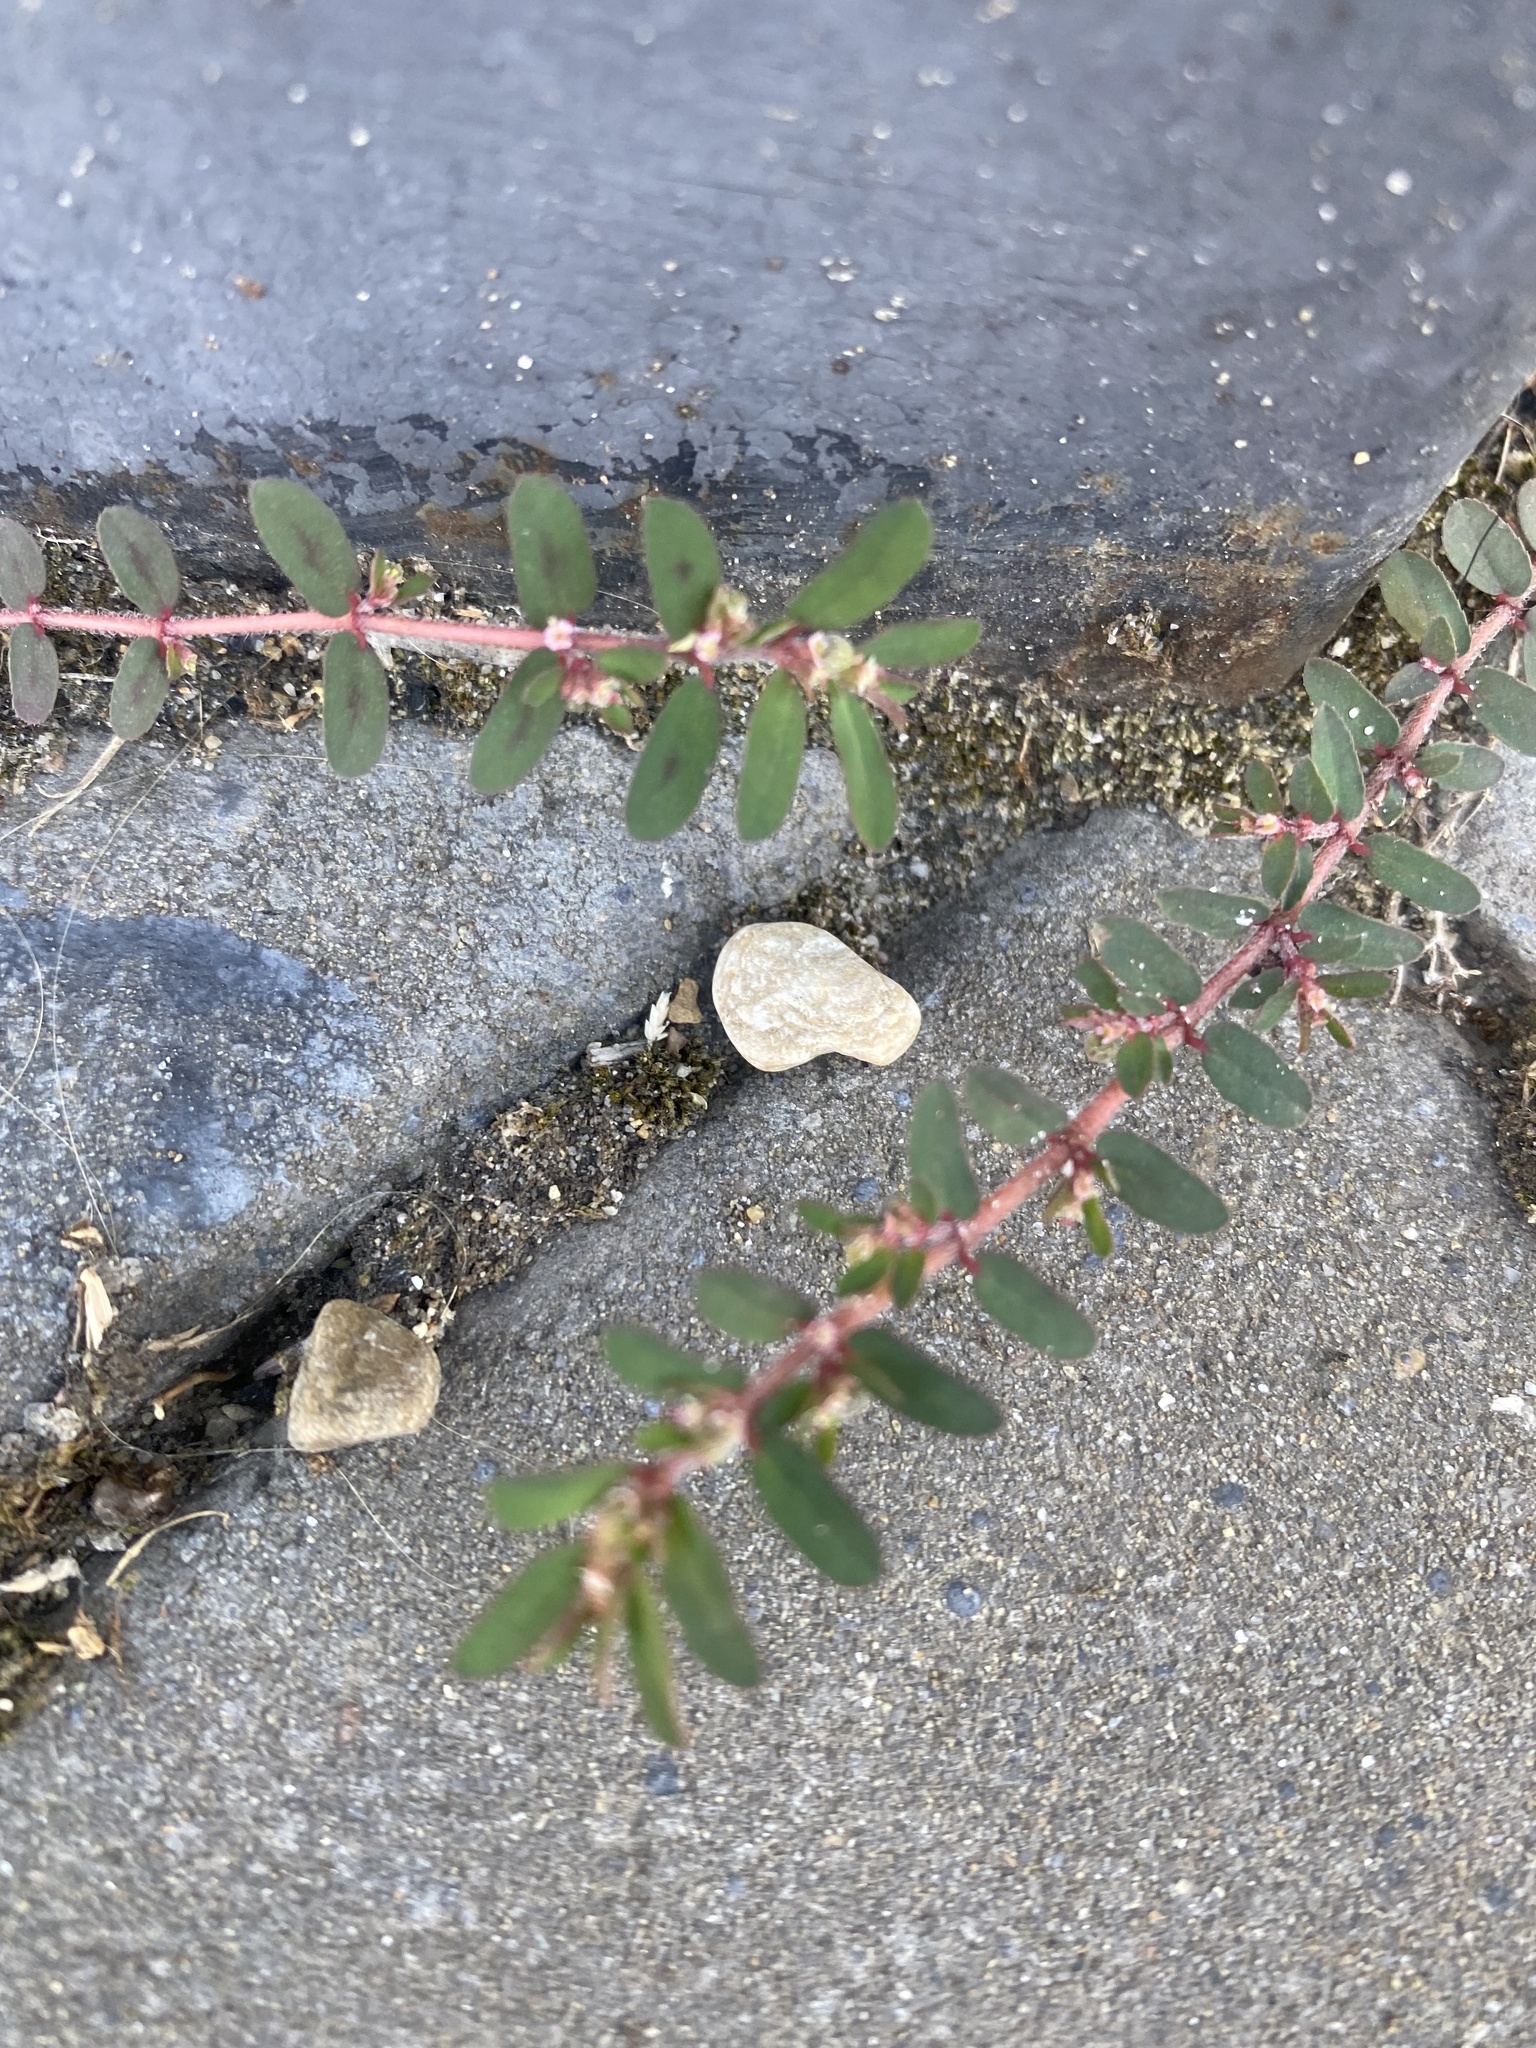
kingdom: Plantae
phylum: Tracheophyta
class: Magnoliopsida
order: Malpighiales
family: Euphorbiaceae
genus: Euphorbia
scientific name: Euphorbia maculata
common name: Spotted spurge
